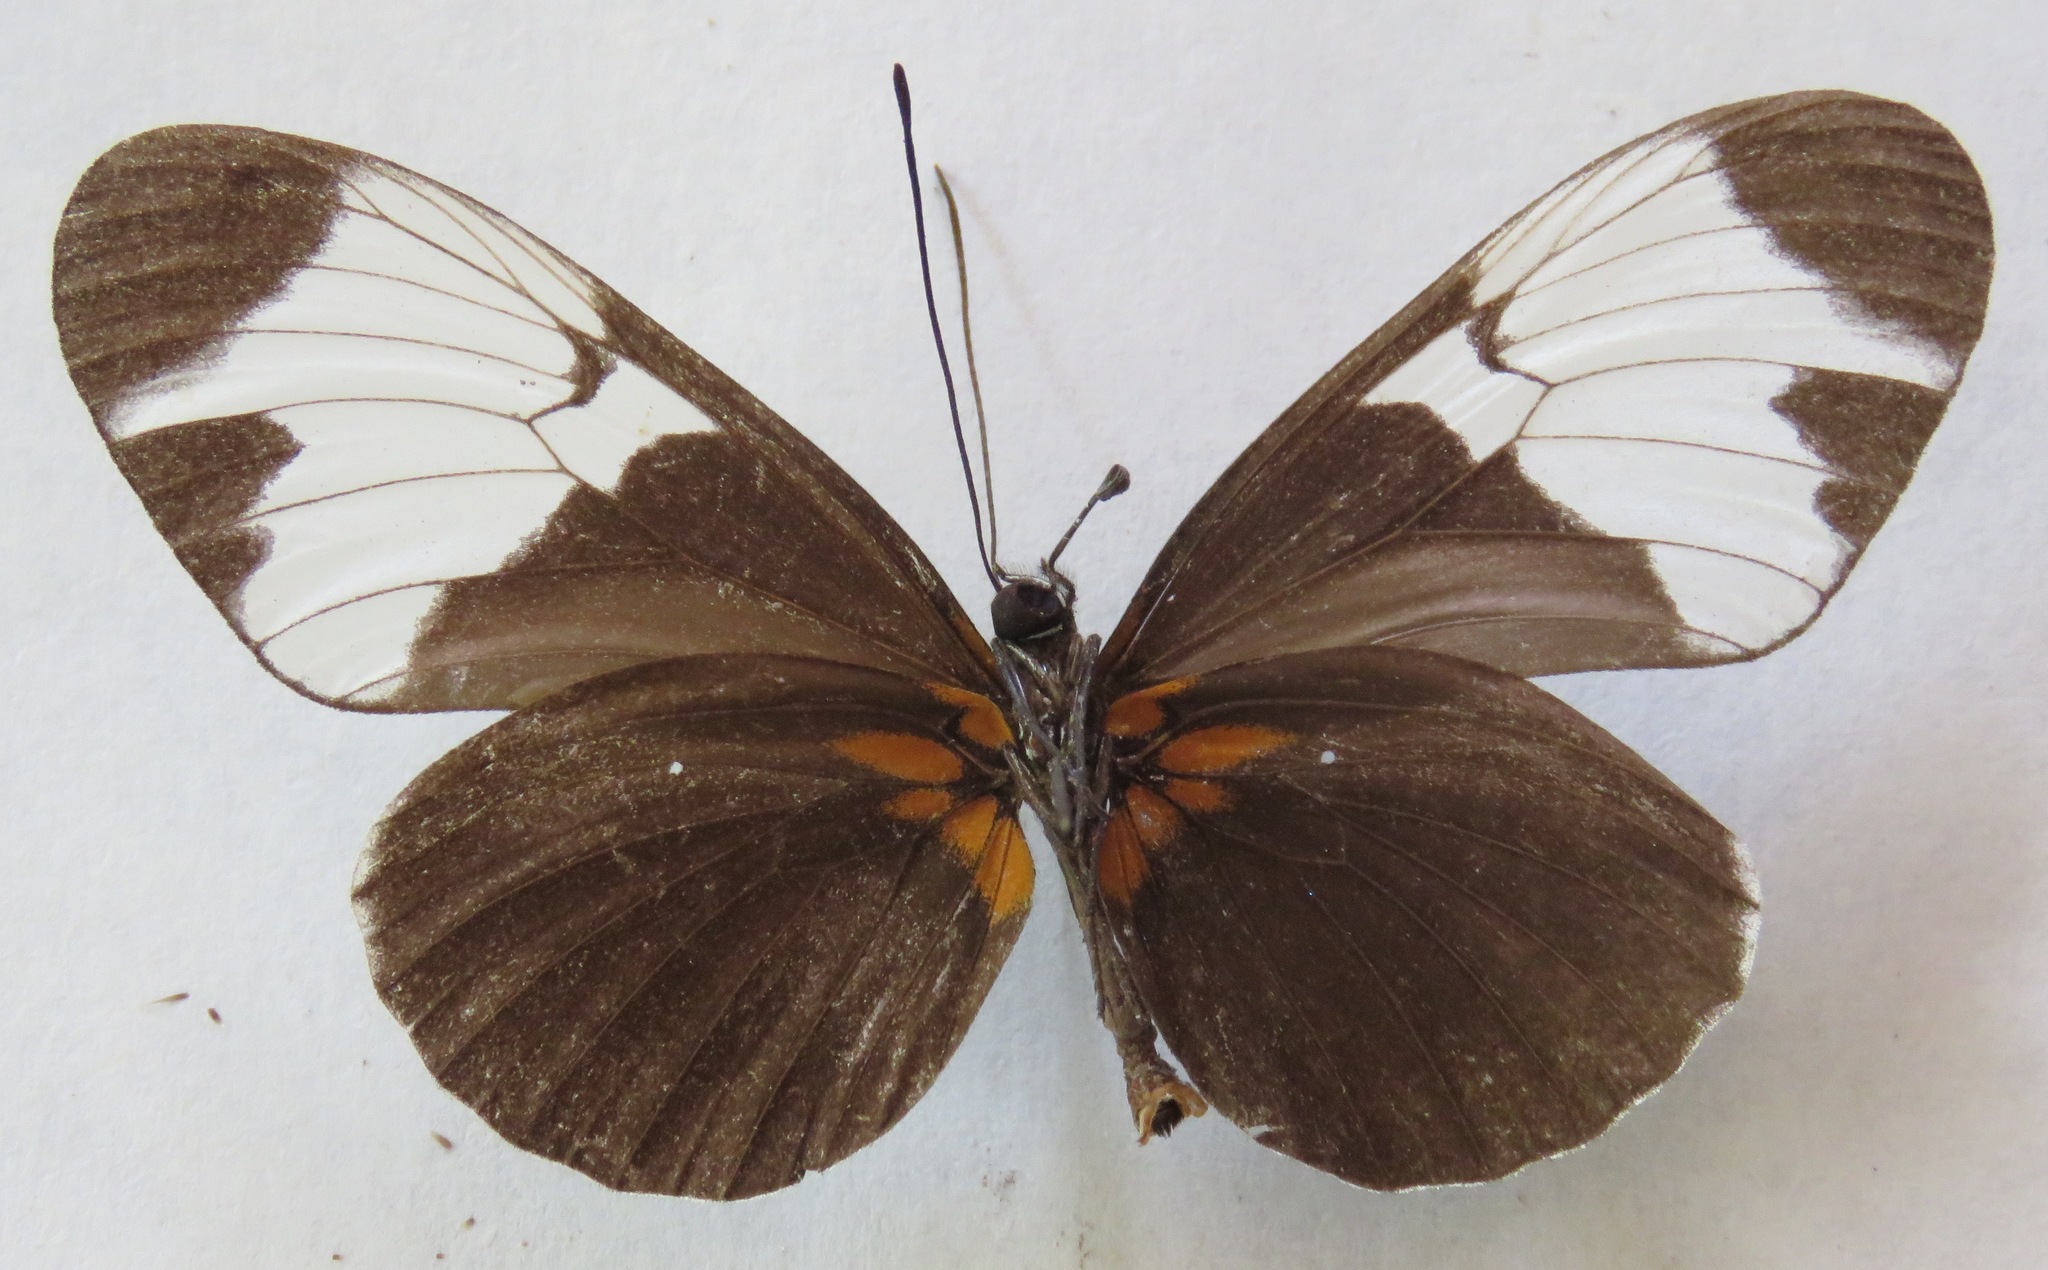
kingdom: Animalia
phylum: Arthropoda
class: Insecta
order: Lepidoptera
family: Nymphalidae
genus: Heliconius
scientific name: Heliconius sapho
